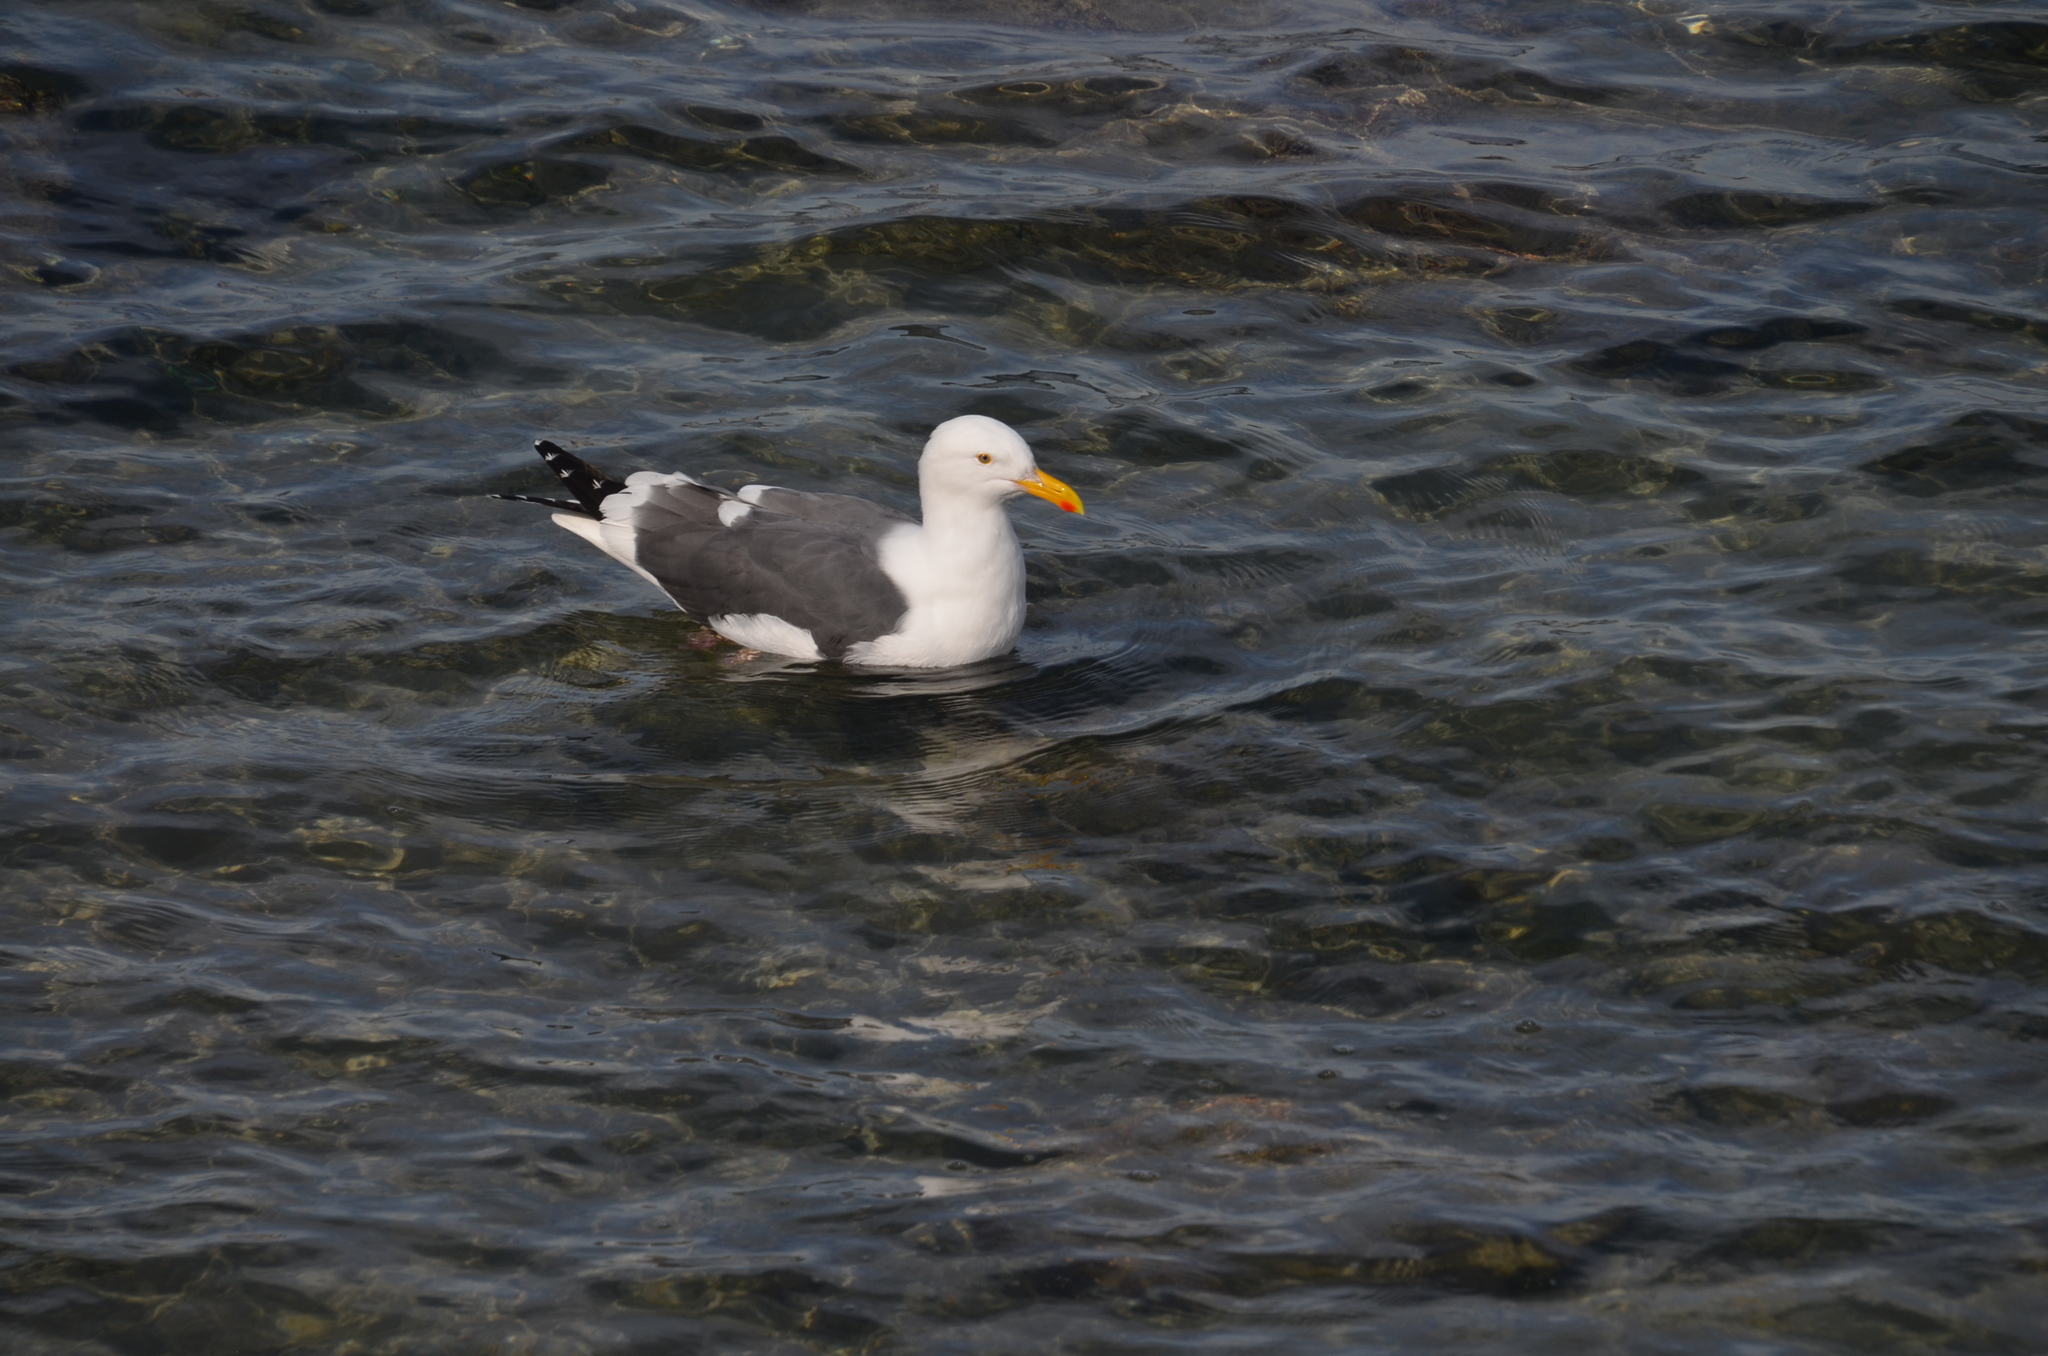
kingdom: Animalia
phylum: Chordata
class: Aves
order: Charadriiformes
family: Laridae
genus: Larus
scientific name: Larus occidentalis
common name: Western gull
